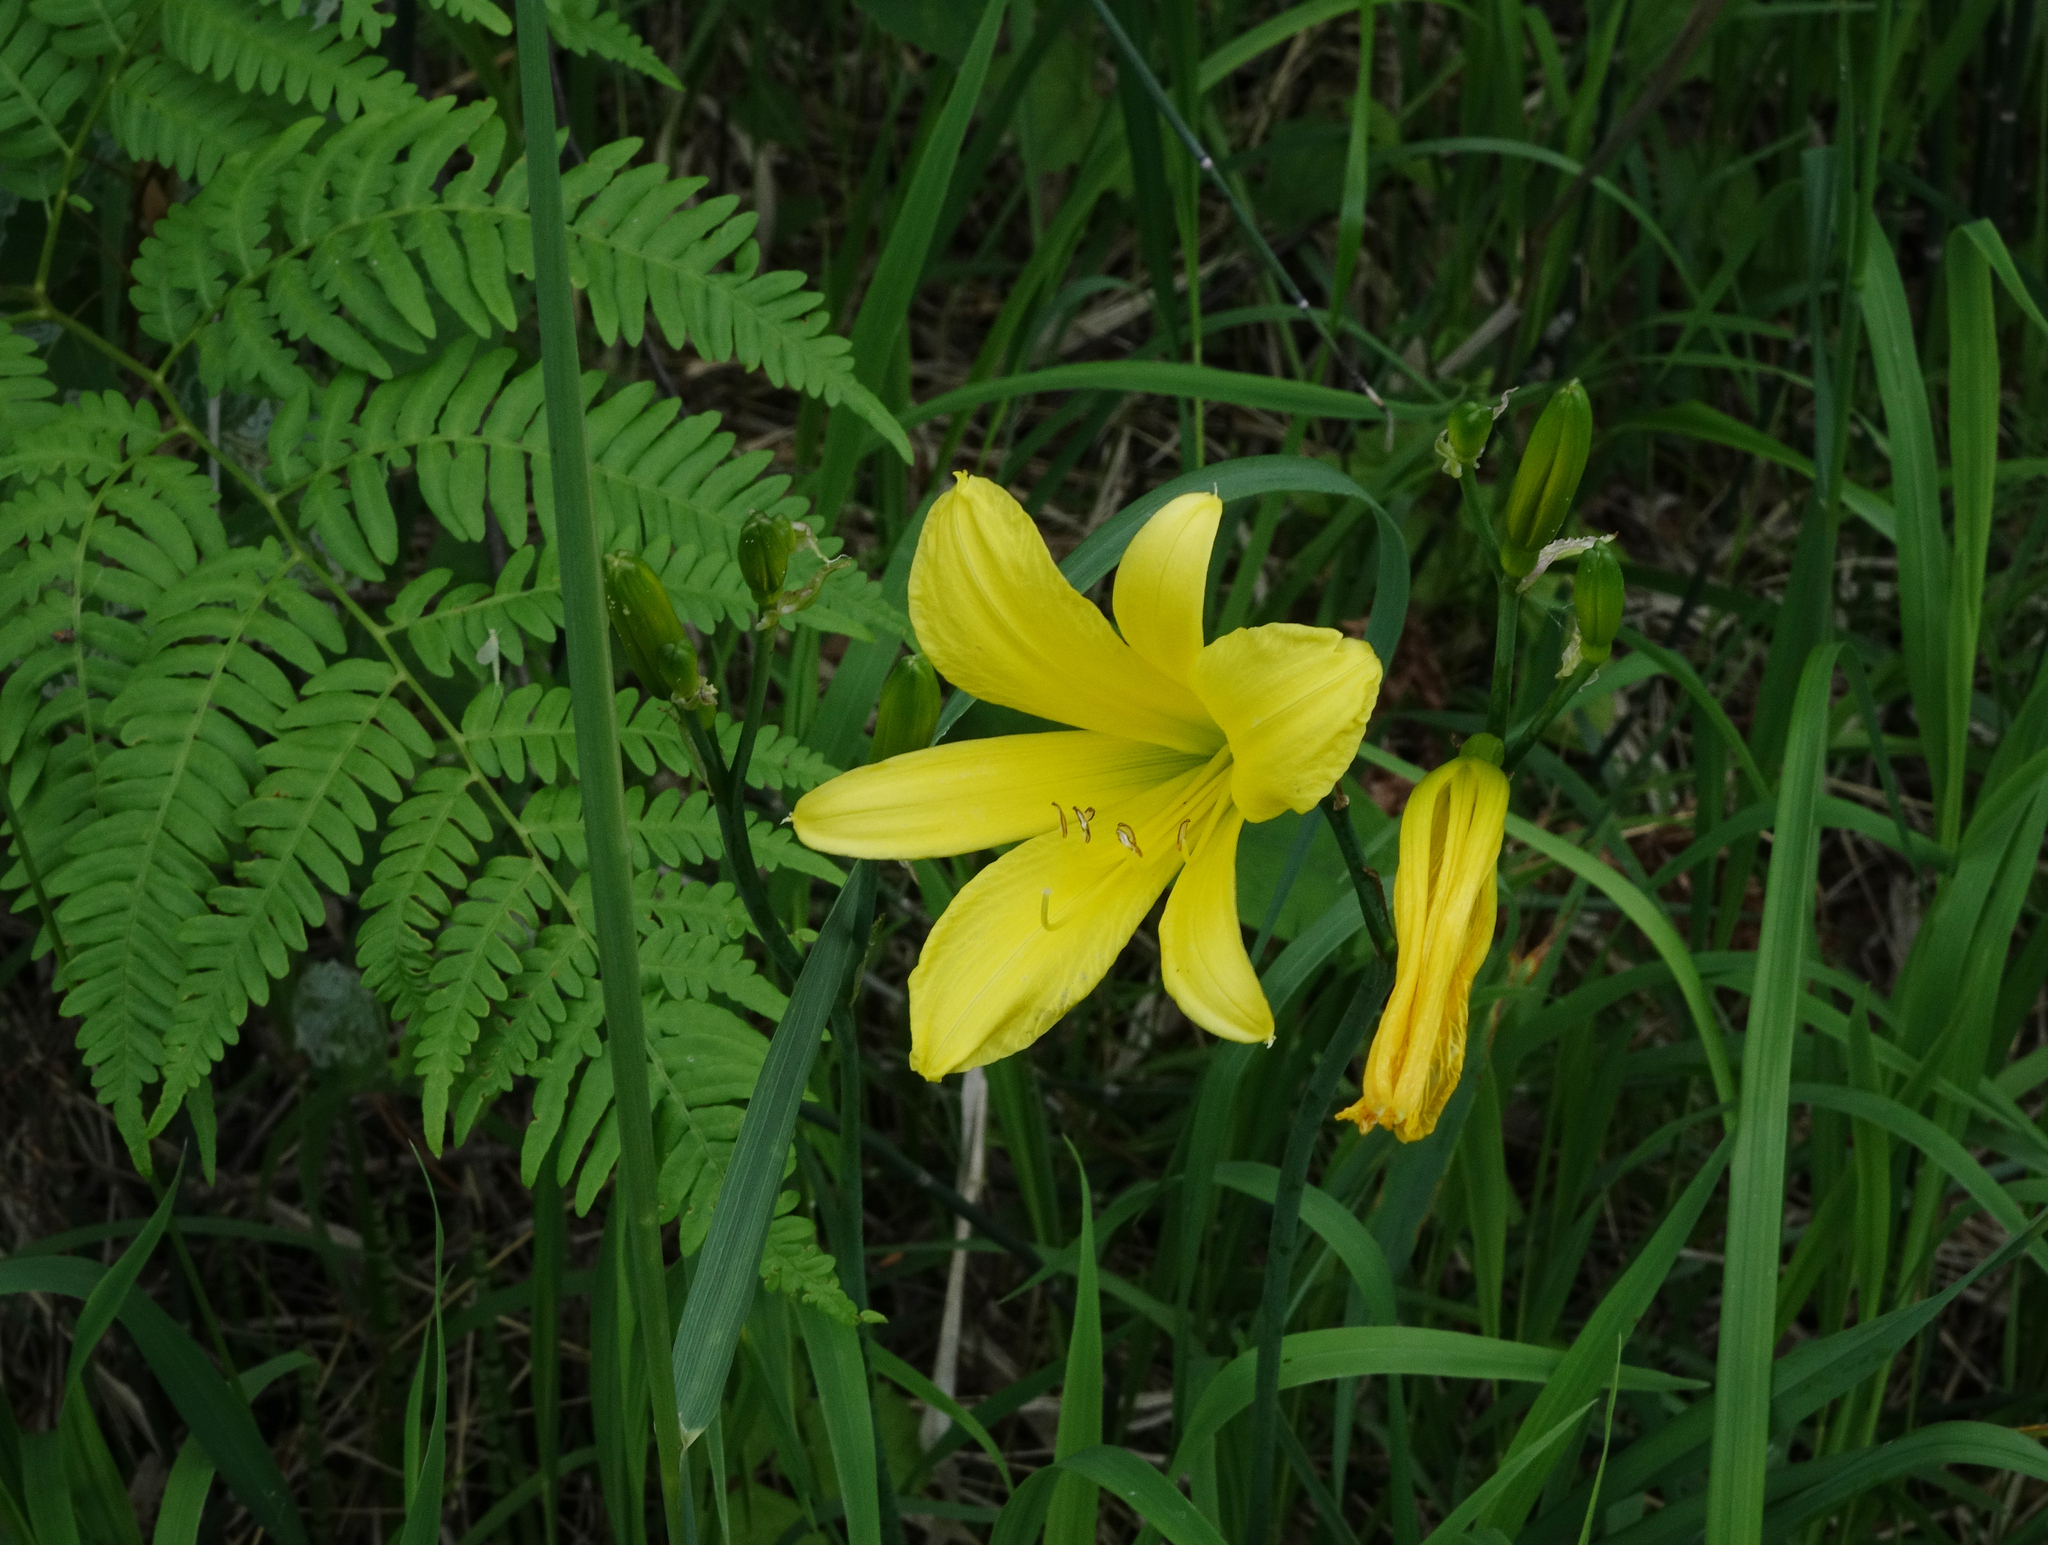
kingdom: Plantae
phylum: Tracheophyta
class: Liliopsida
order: Asparagales
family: Asphodelaceae
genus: Hemerocallis
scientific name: Hemerocallis minor
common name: Small daylily
